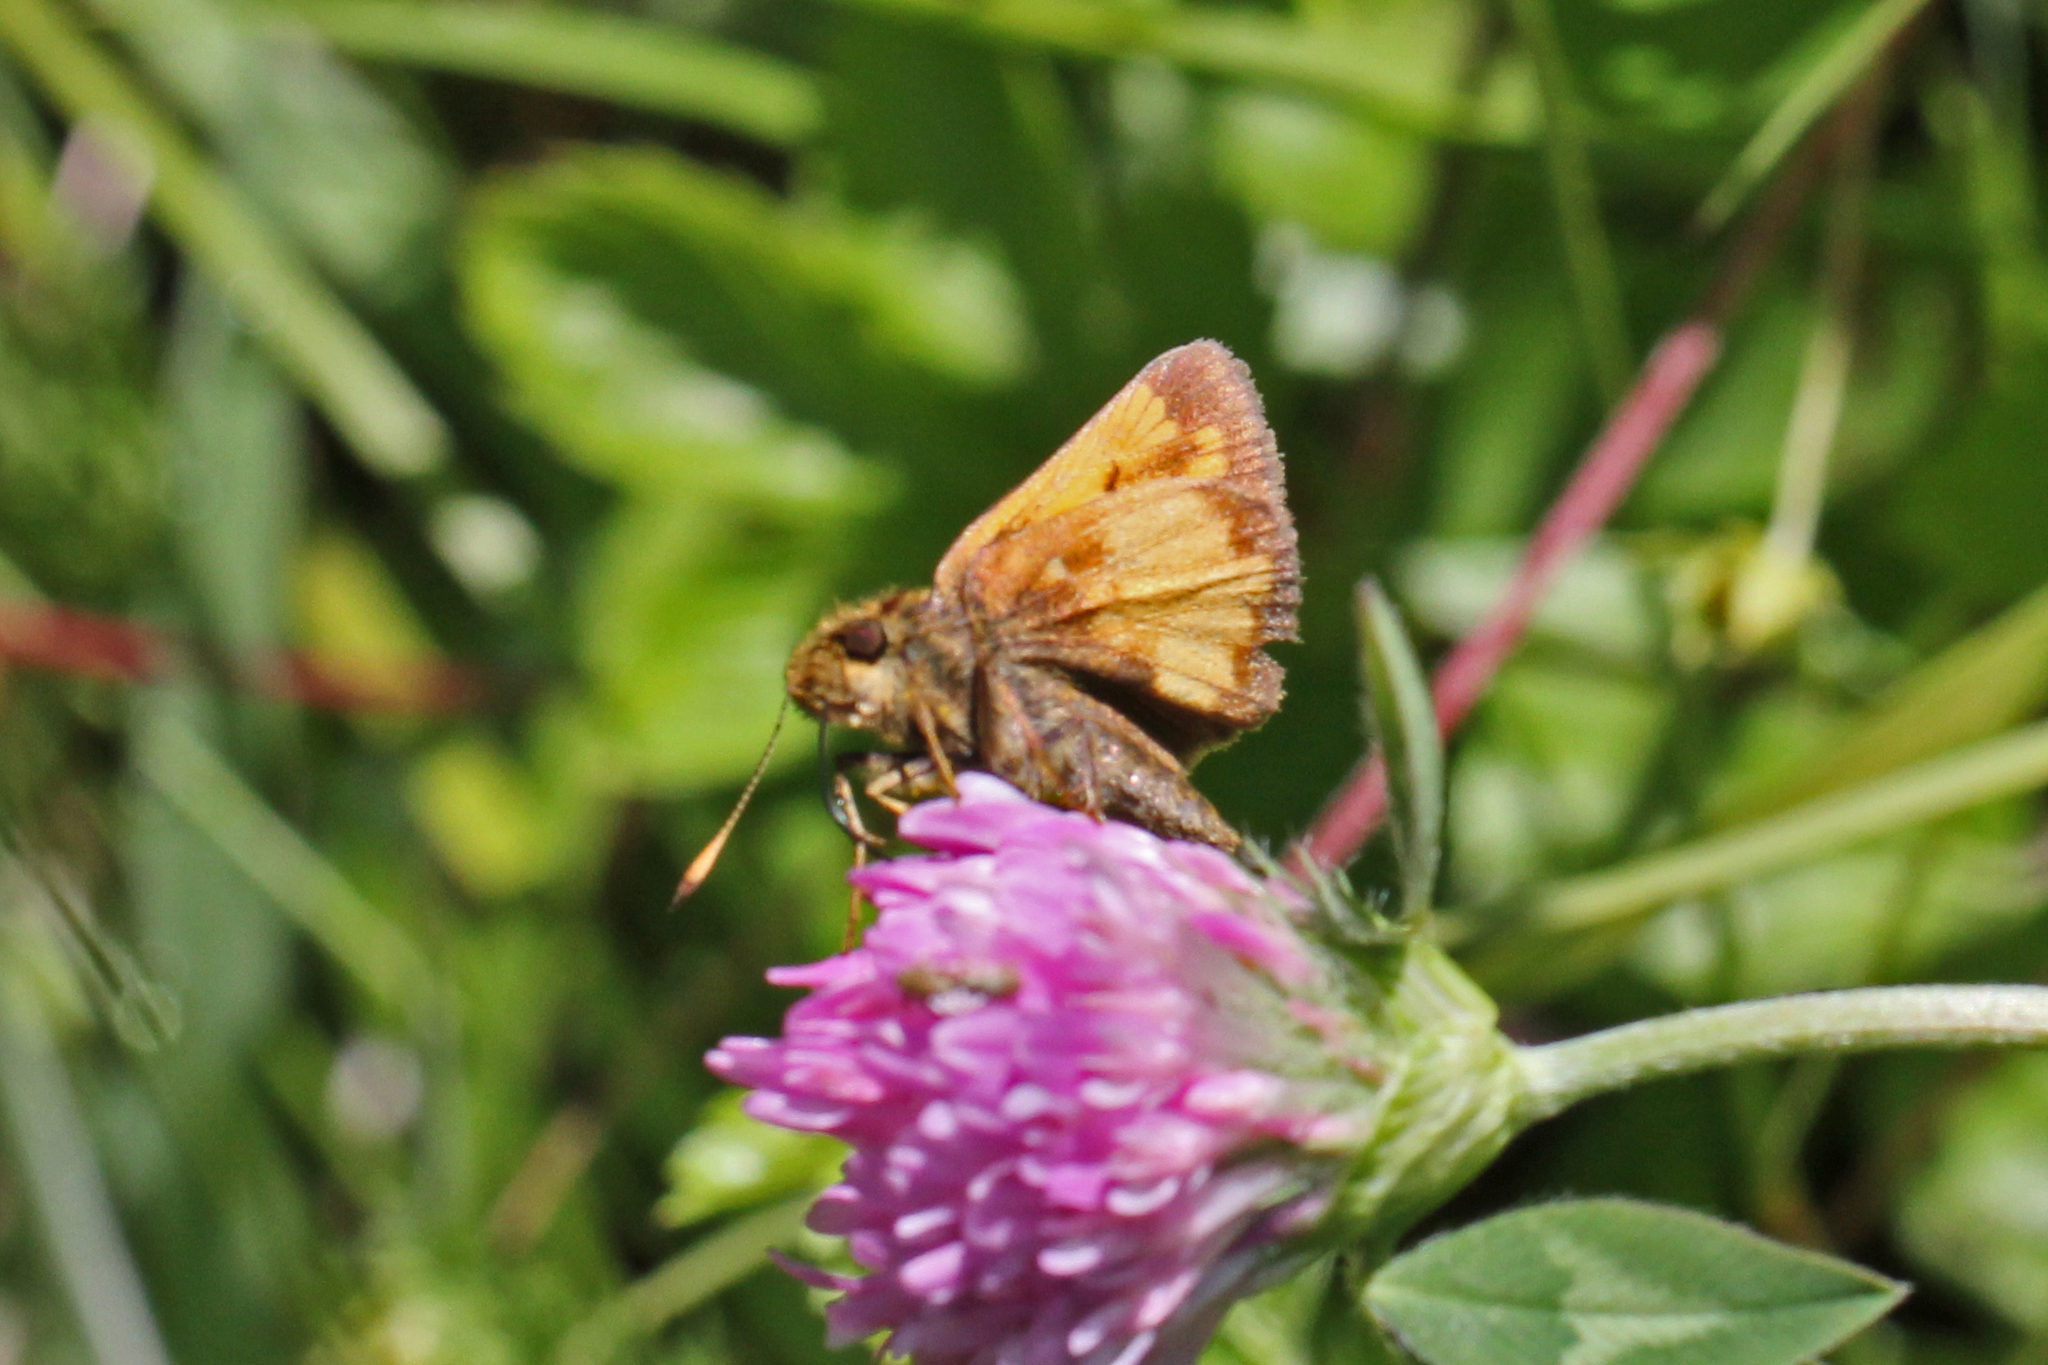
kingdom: Animalia
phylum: Arthropoda
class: Insecta
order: Lepidoptera
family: Hesperiidae
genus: Lon
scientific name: Lon hobomok
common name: Hobomok skipper
